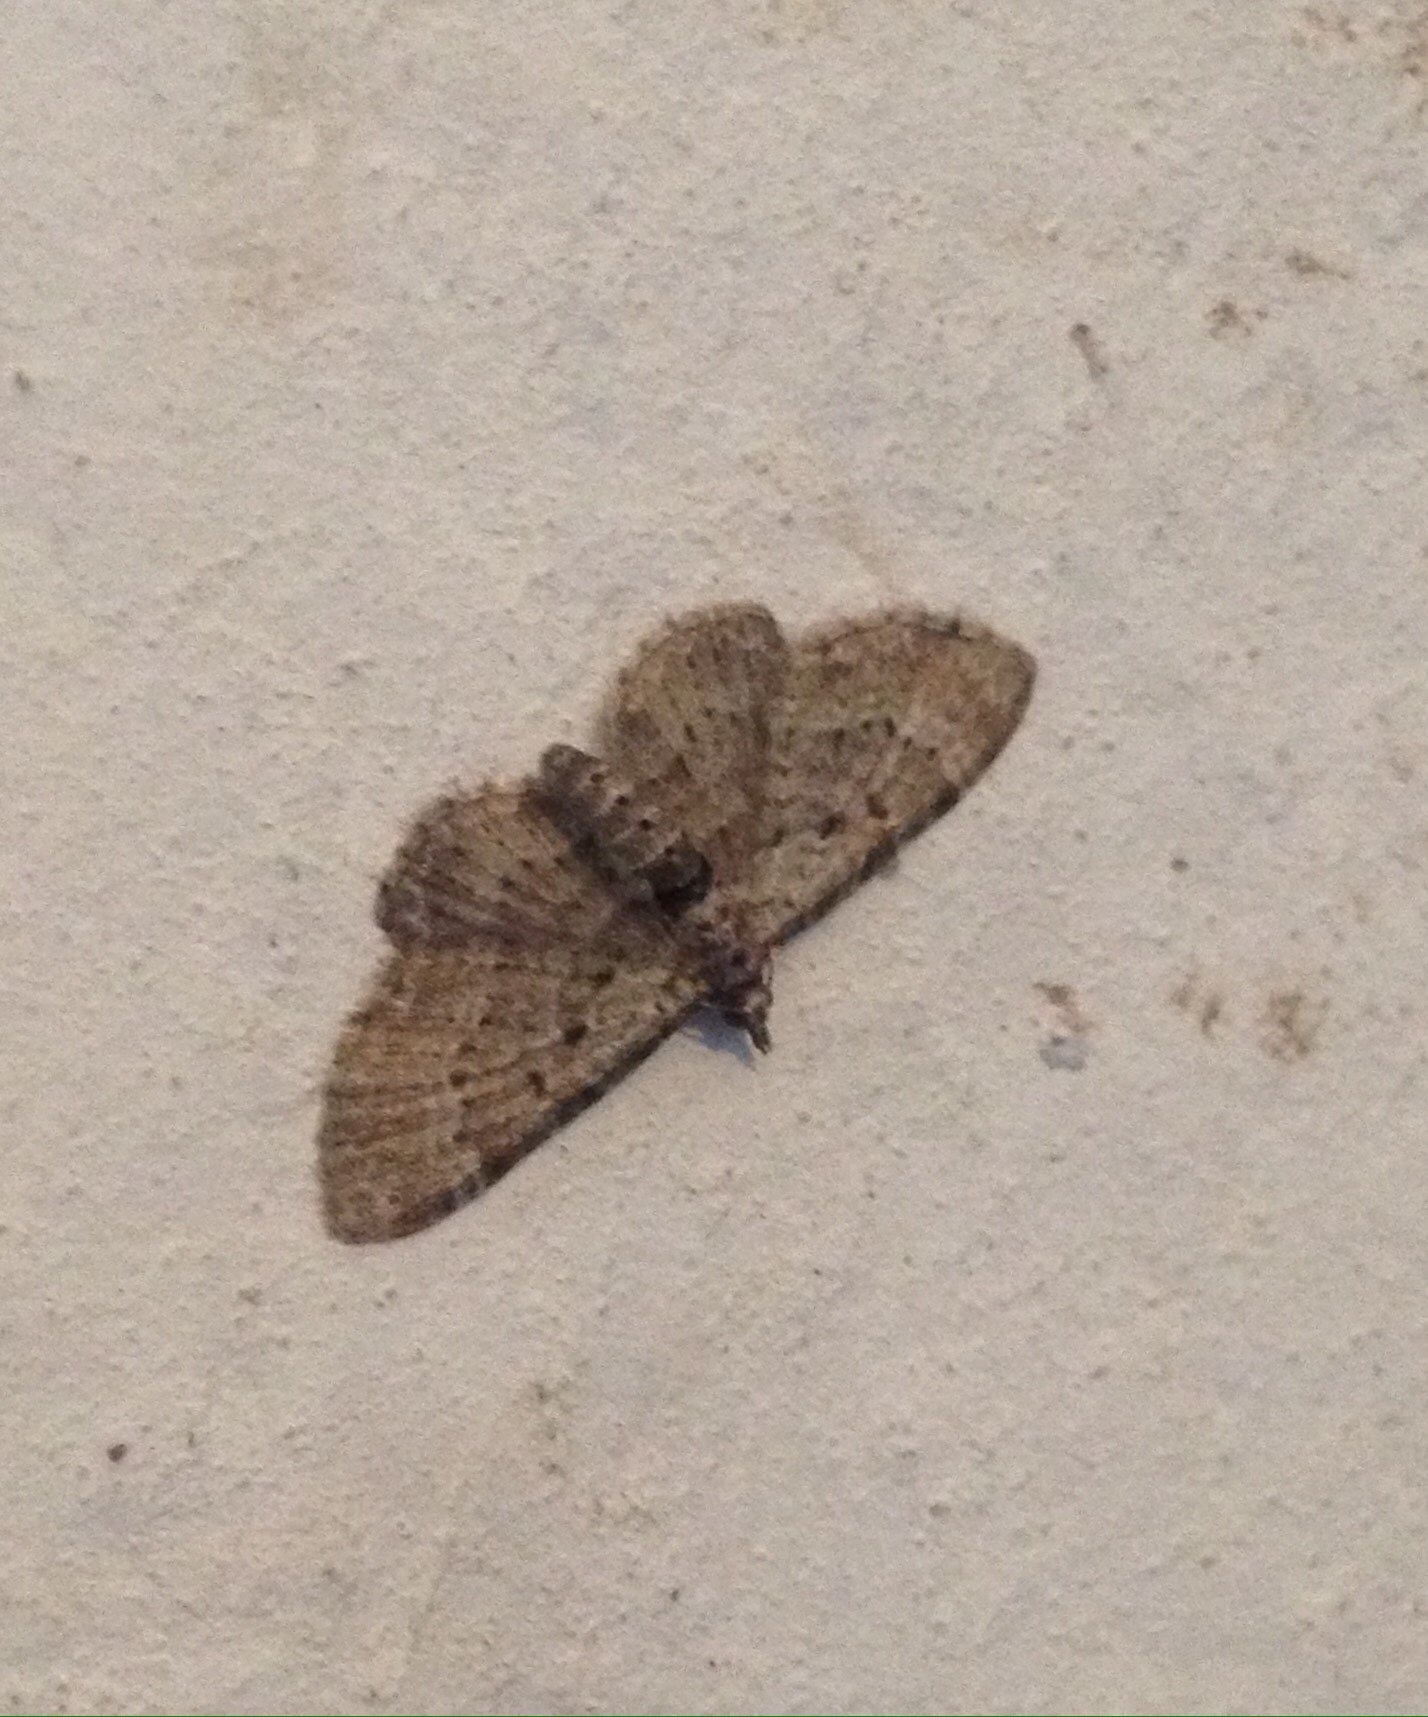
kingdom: Animalia
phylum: Arthropoda
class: Insecta
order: Lepidoptera
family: Geometridae
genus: Pasiphila
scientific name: Pasiphila debiliata
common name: Bilberry pug
